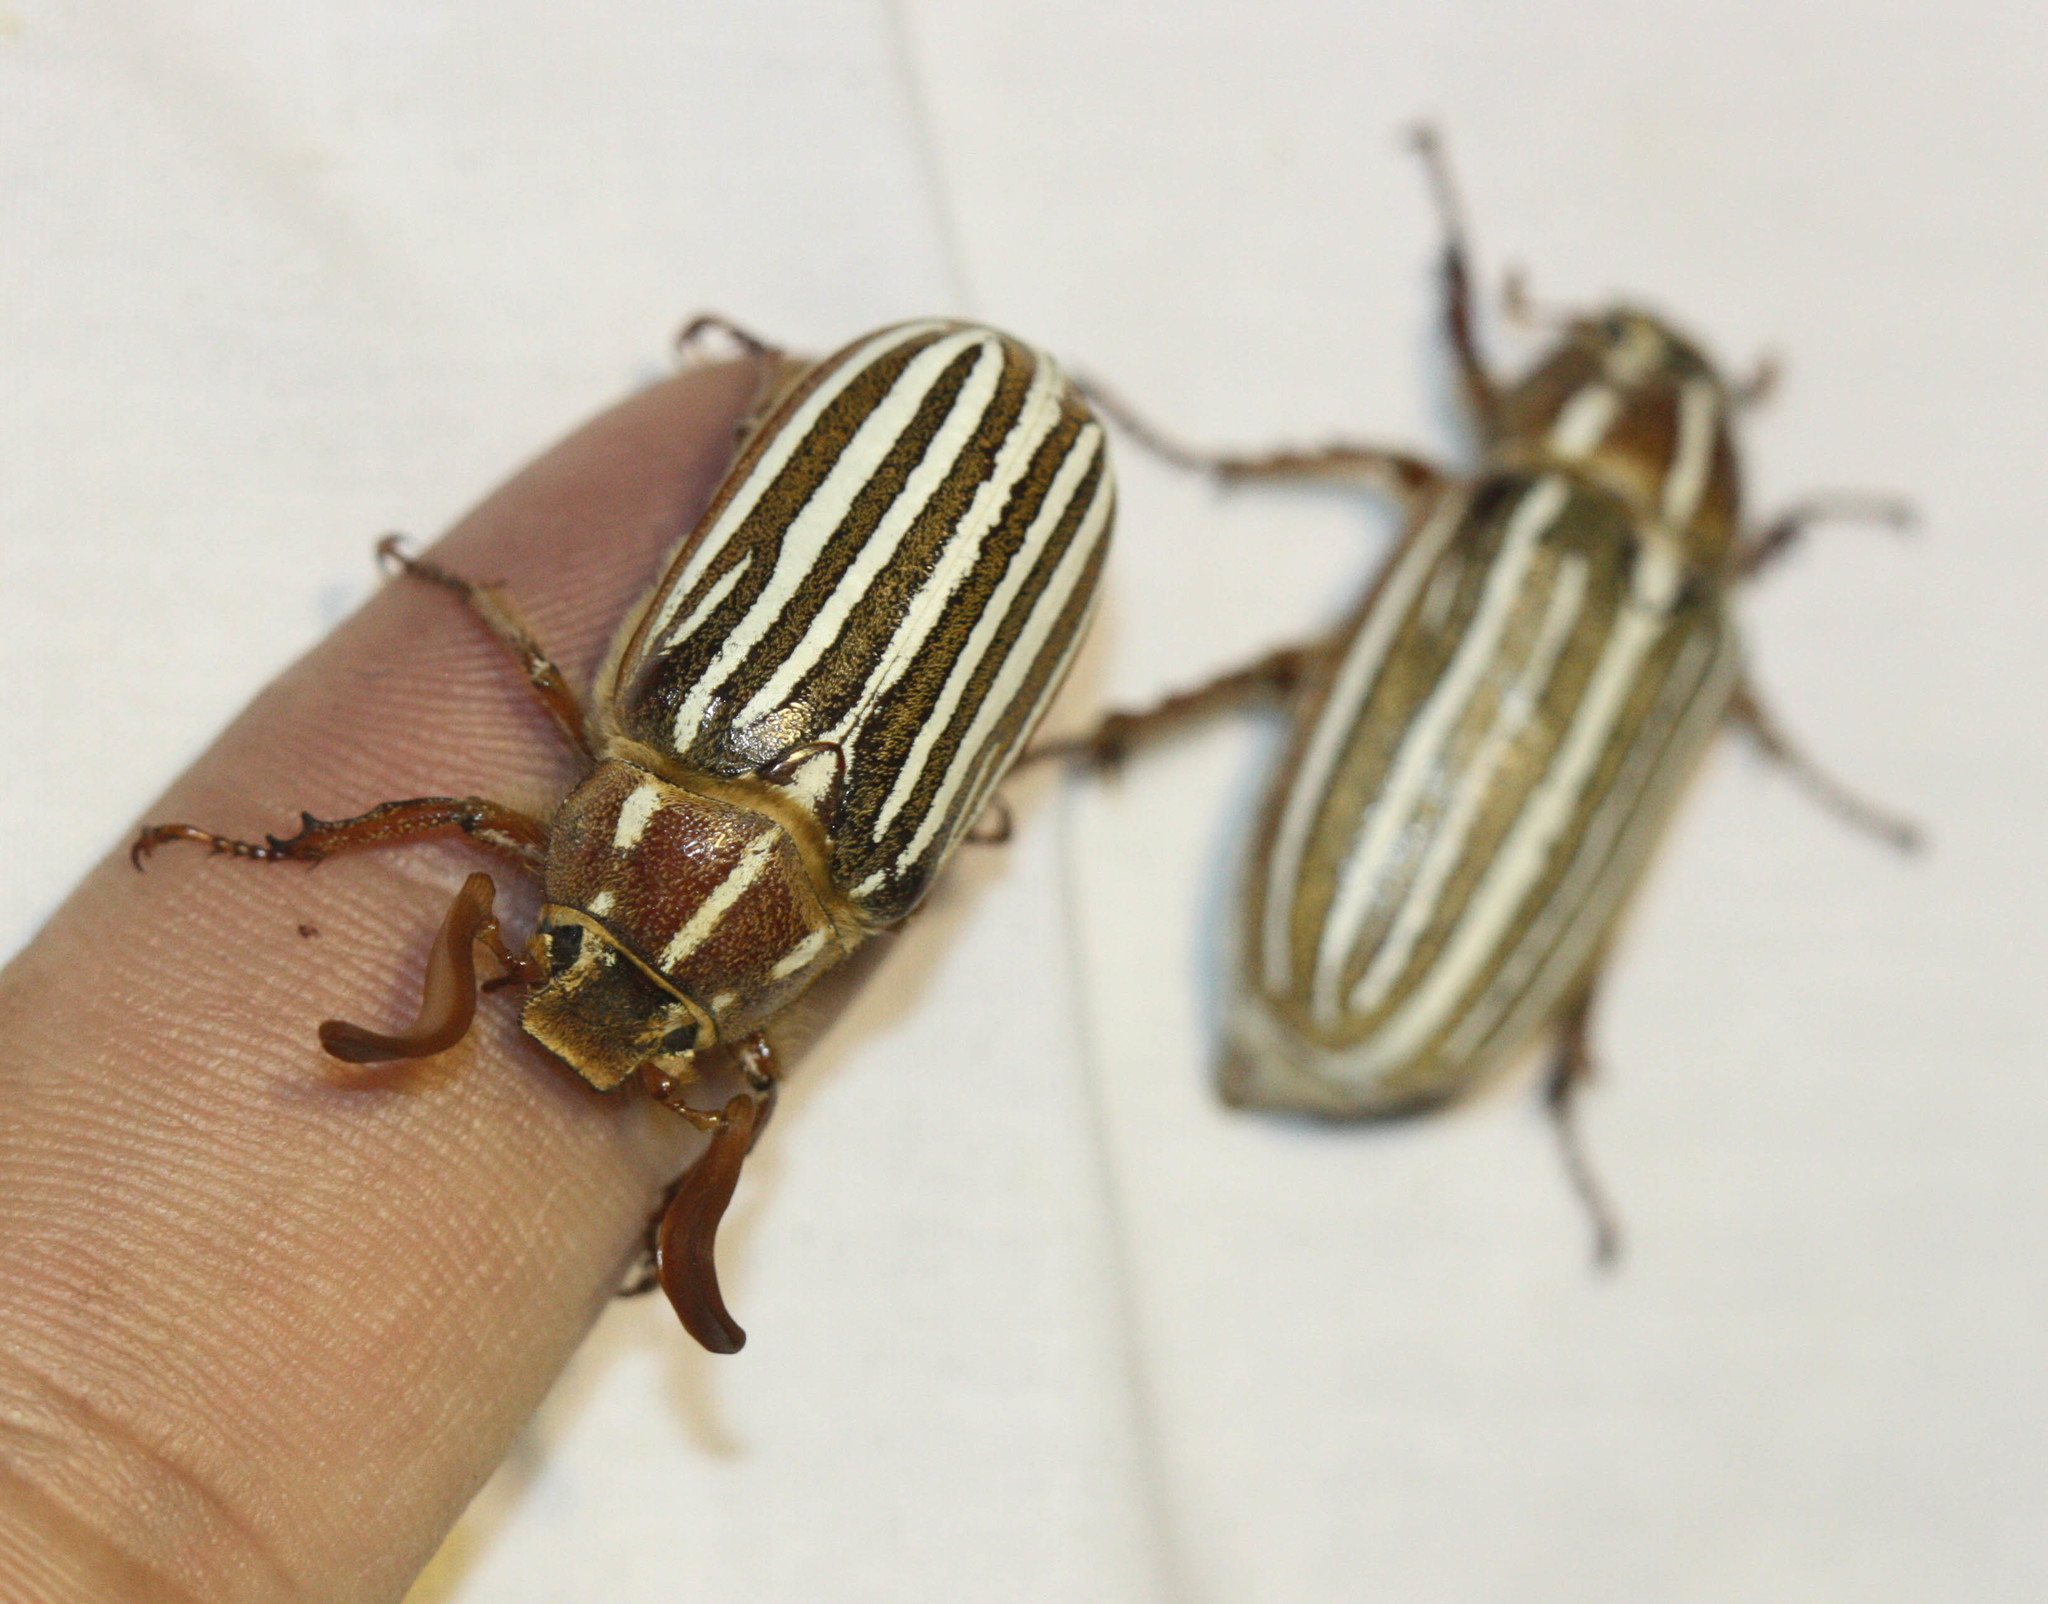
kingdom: Animalia
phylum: Arthropoda
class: Insecta
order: Coleoptera
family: Scarabaeidae
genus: Polyphylla
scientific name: Polyphylla decemlineata
